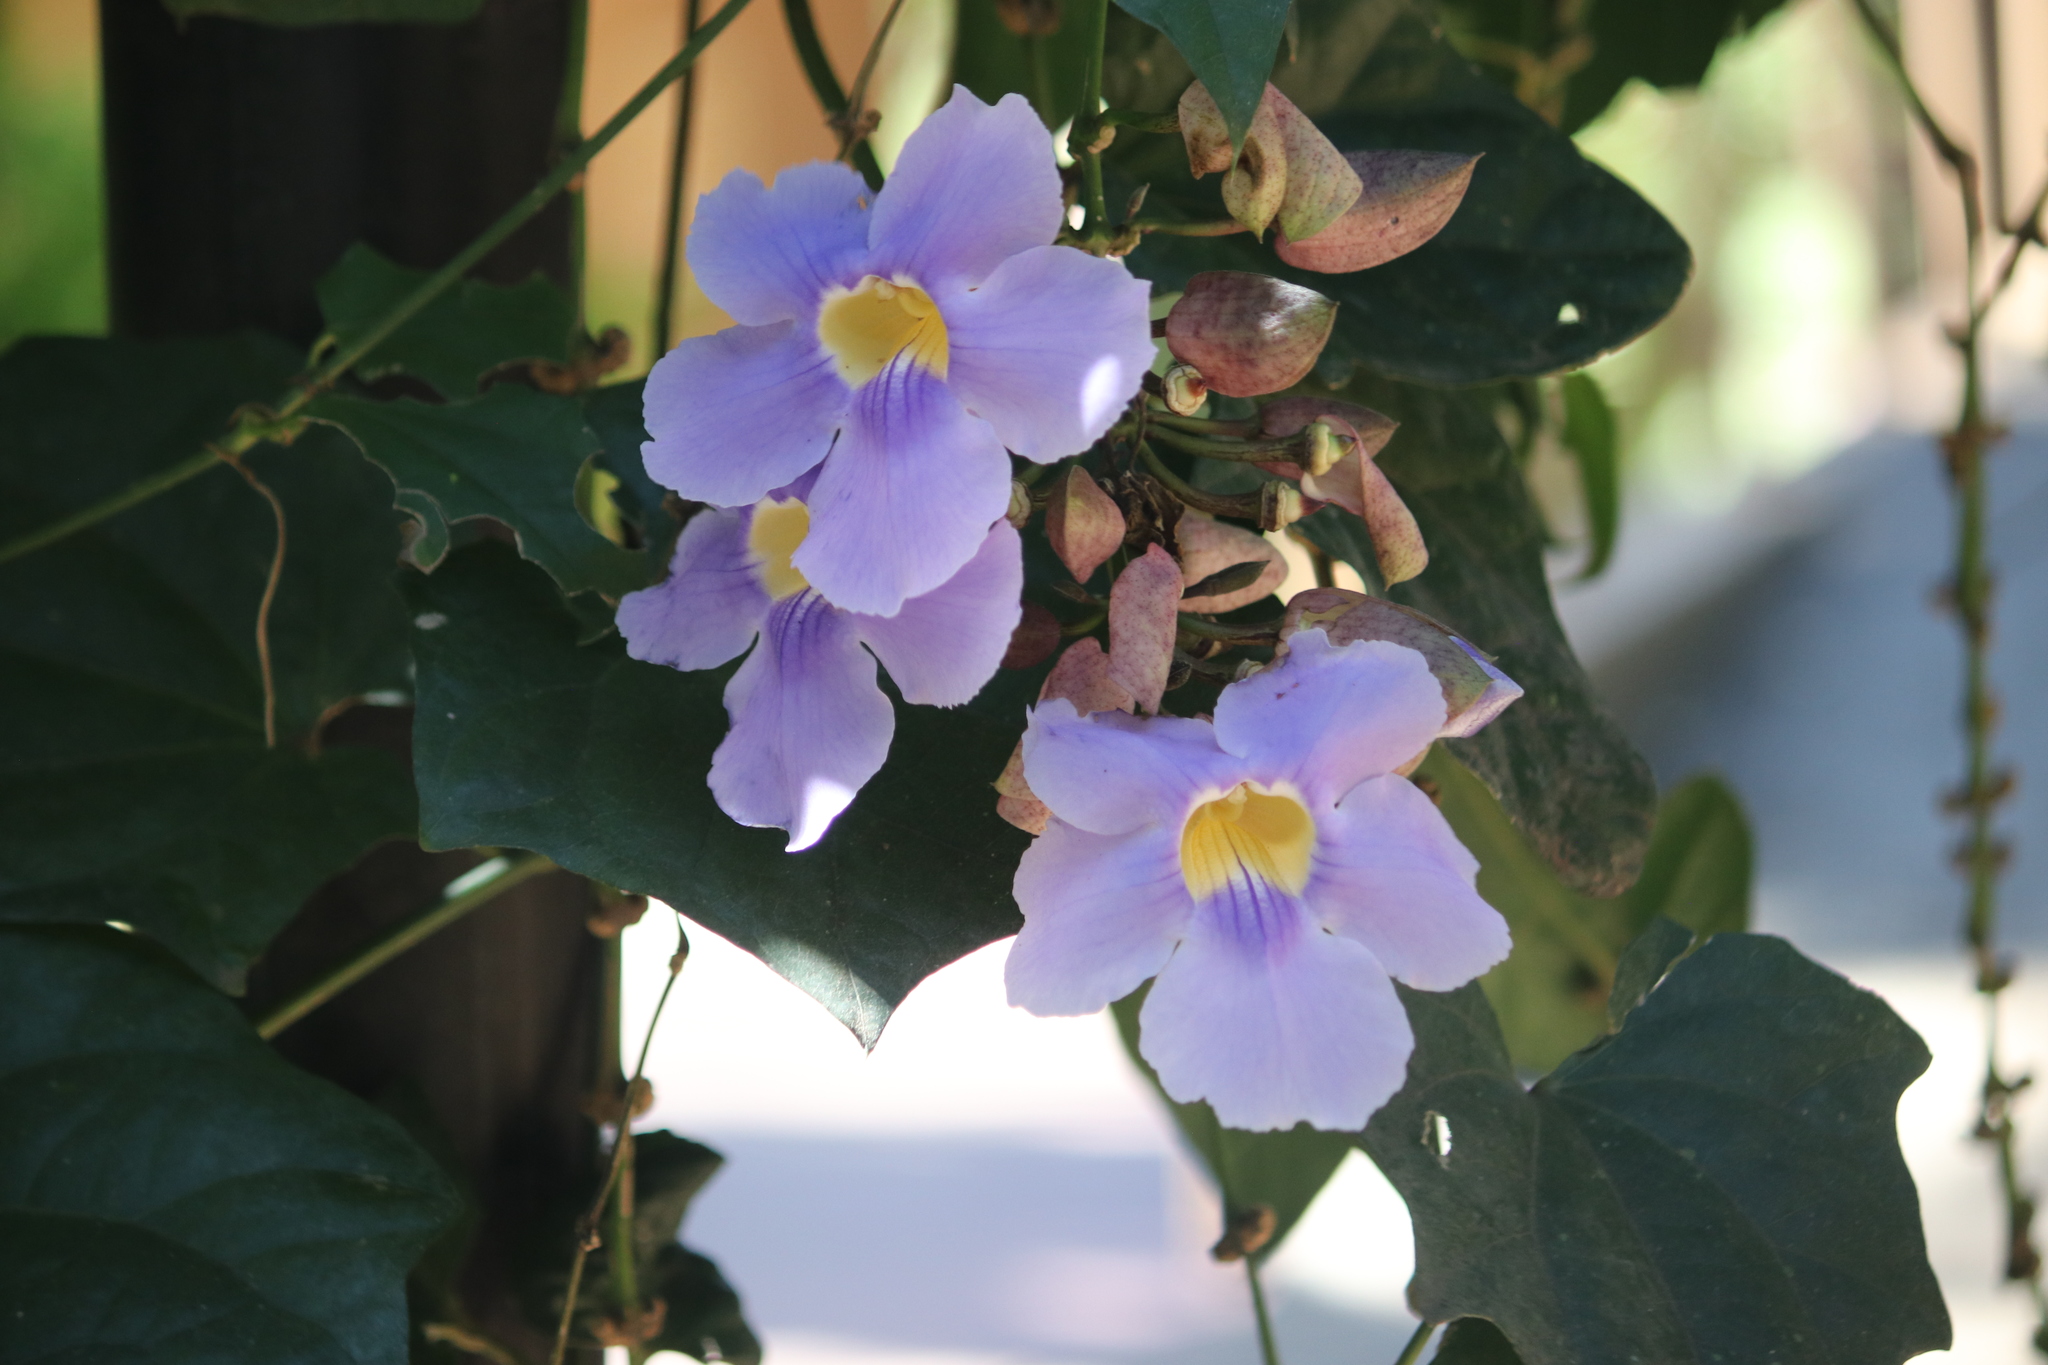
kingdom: Plantae
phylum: Tracheophyta
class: Magnoliopsida
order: Lamiales
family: Acanthaceae
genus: Thunbergia
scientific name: Thunbergia grandiflora
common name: Bengal trumpet
